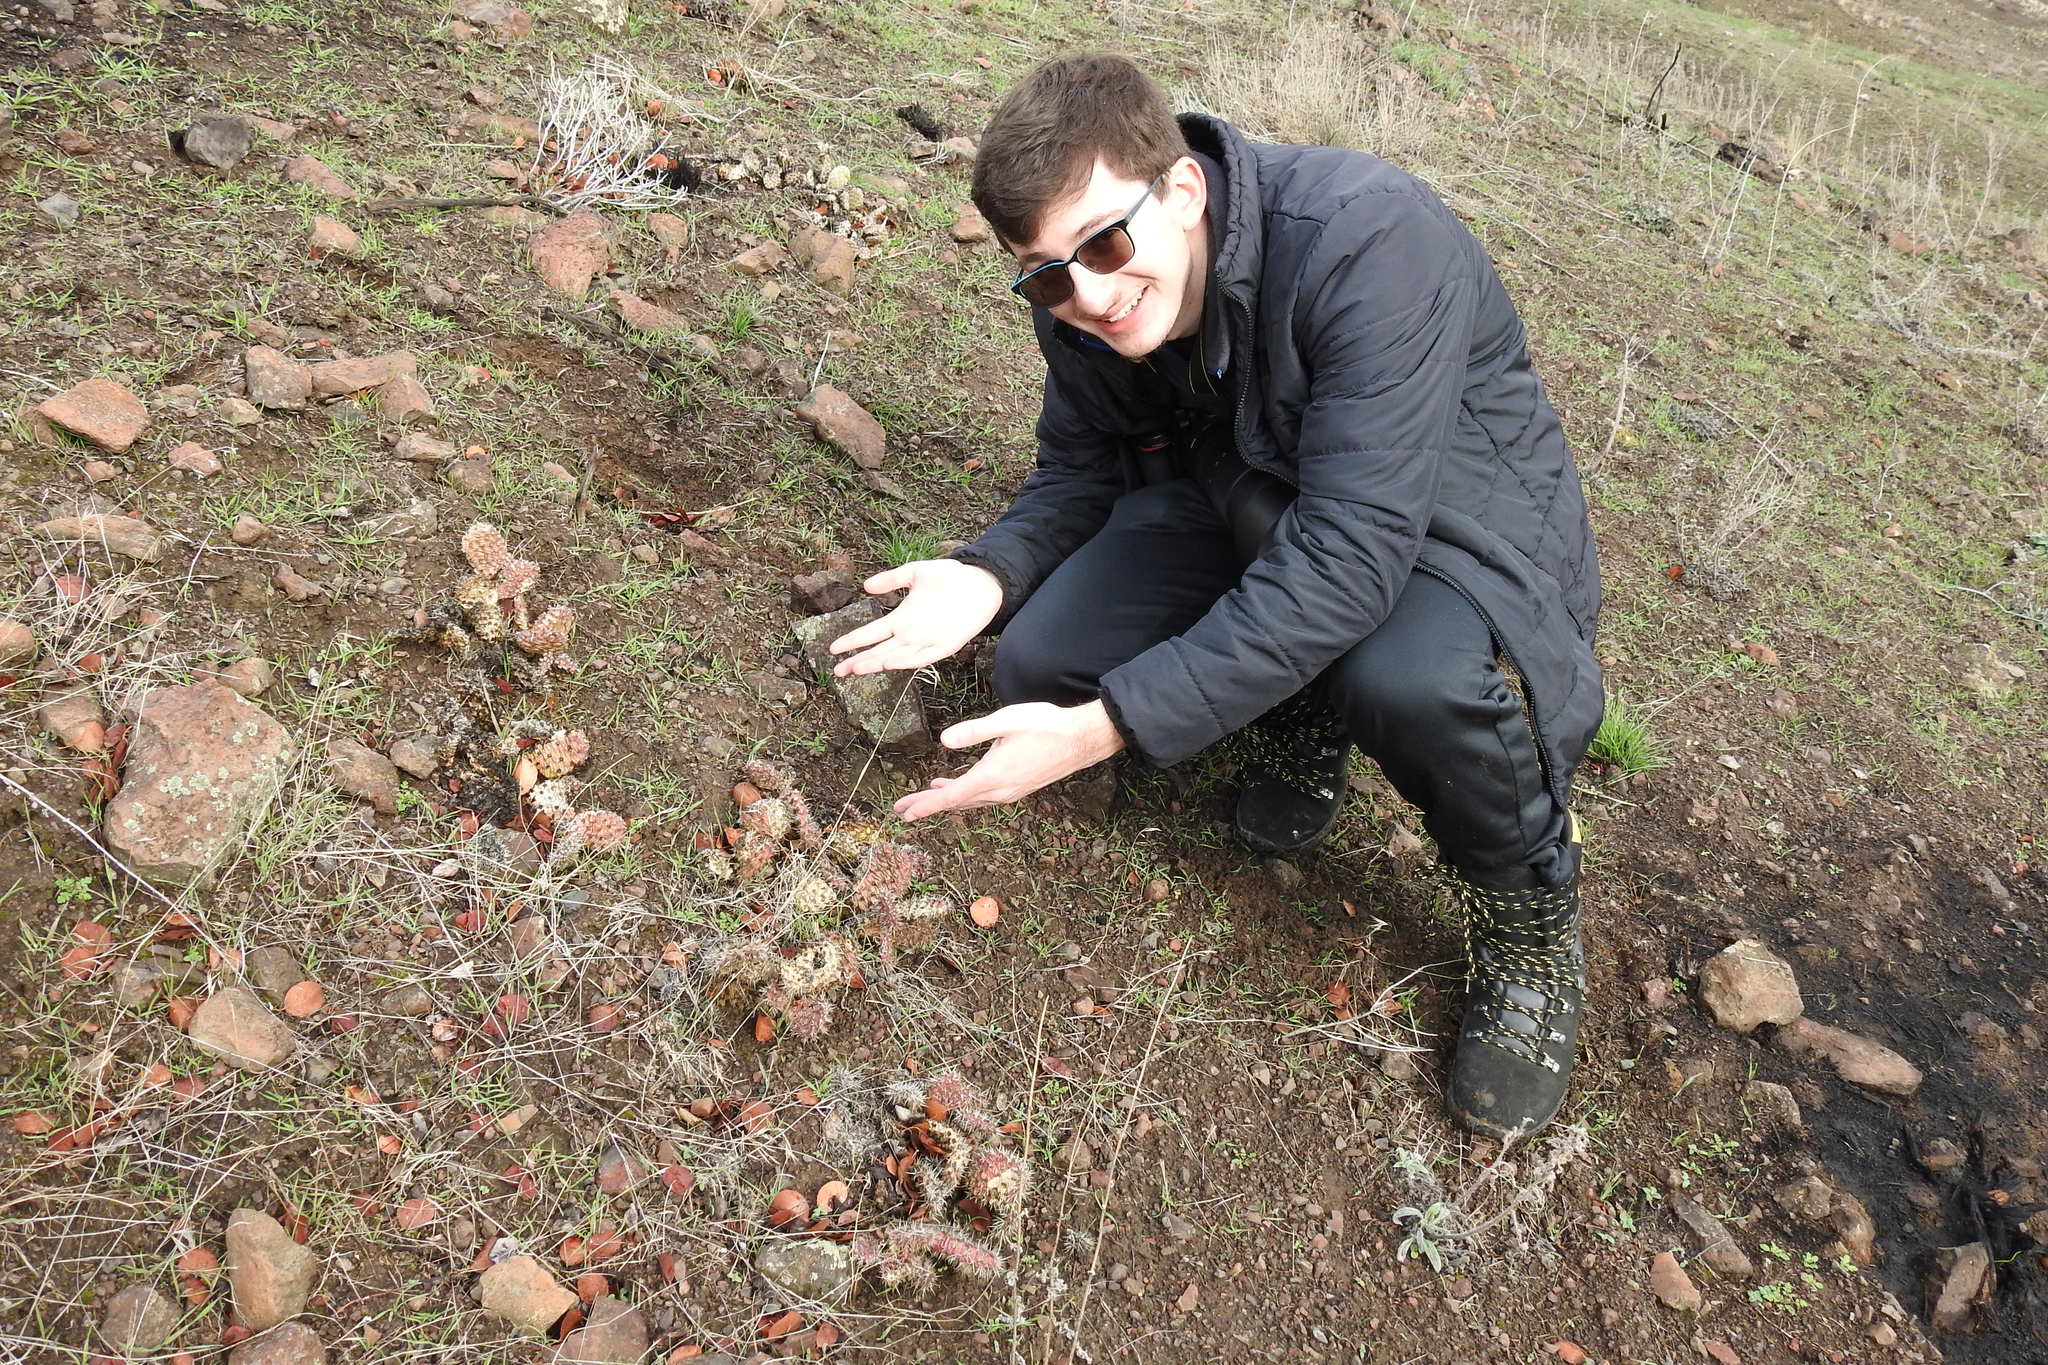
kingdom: Plantae
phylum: Tracheophyta
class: Magnoliopsida
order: Caryophyllales
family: Cactaceae
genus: Opuntia
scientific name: Opuntia polyacantha
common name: Plains prickly-pear
